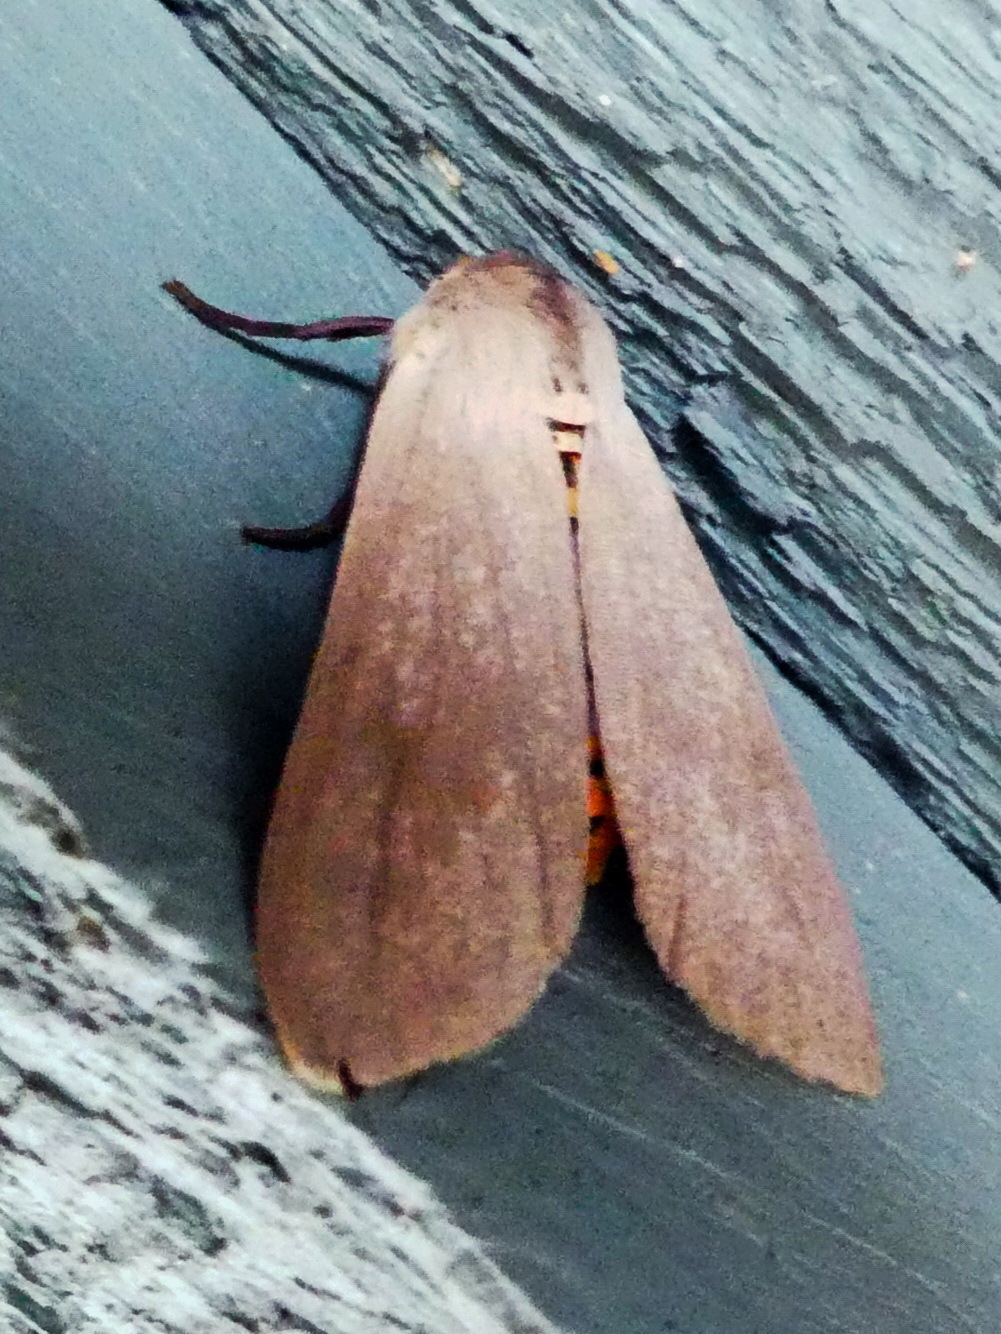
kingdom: Animalia
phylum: Arthropoda
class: Insecta
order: Lepidoptera
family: Erebidae
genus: Euchaetes
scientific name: Euchaetes egle
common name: Milkweed tussock moth
